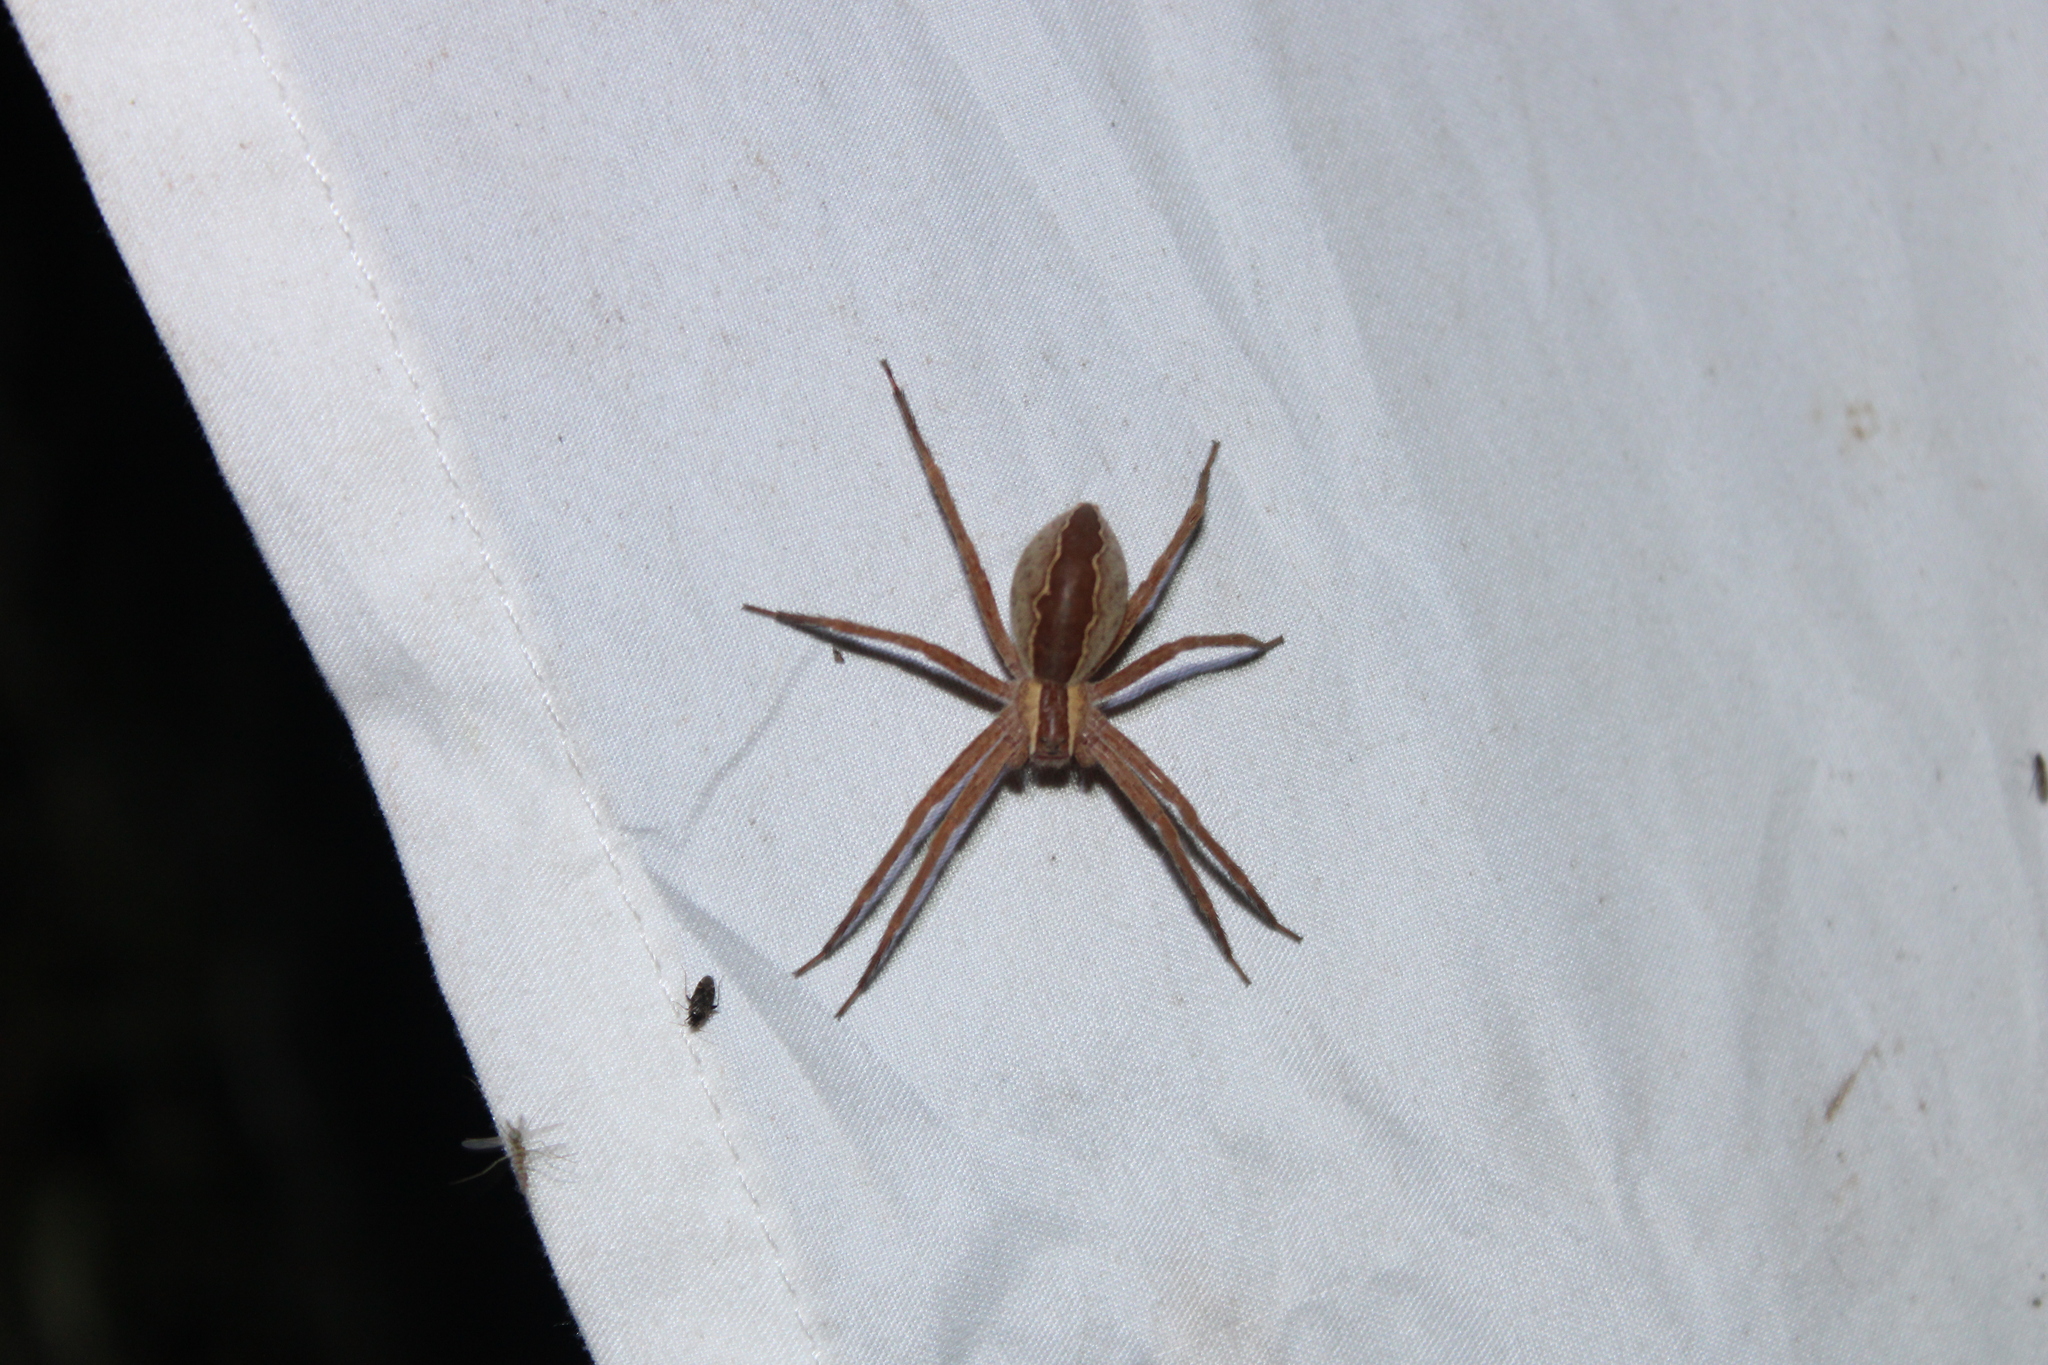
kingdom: Animalia
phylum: Arthropoda
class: Arachnida
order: Araneae
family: Pisauridae
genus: Pisaurina
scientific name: Pisaurina mira
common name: American nursery web spider
